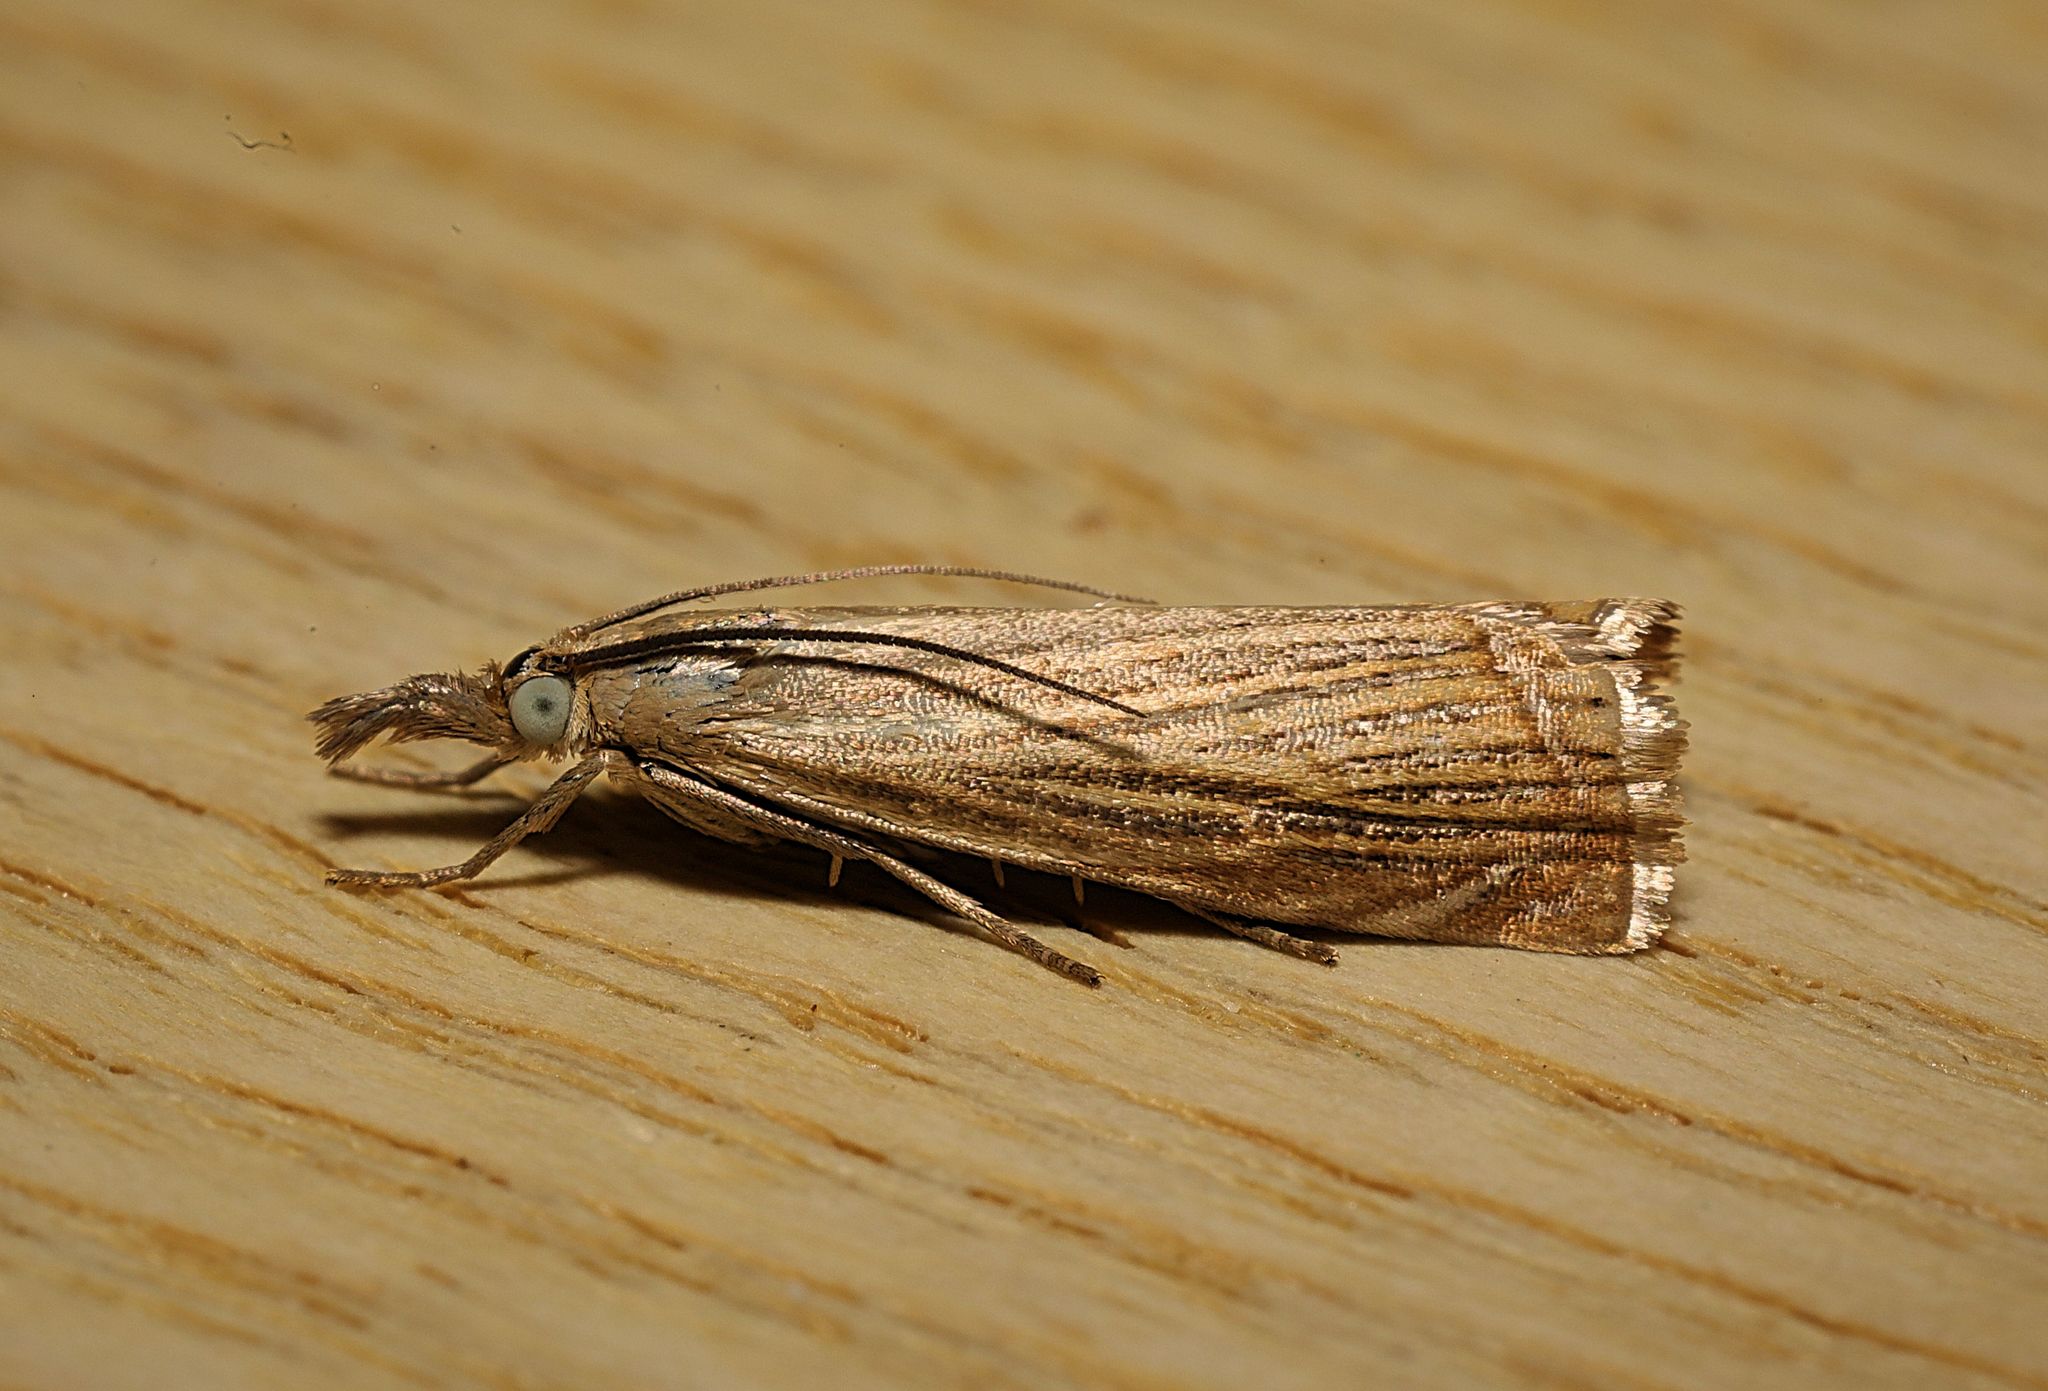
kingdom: Animalia
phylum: Arthropoda
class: Insecta
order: Lepidoptera
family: Crambidae
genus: Chrysoteuchia
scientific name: Chrysoteuchia culmella
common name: Garden grass-veneer
